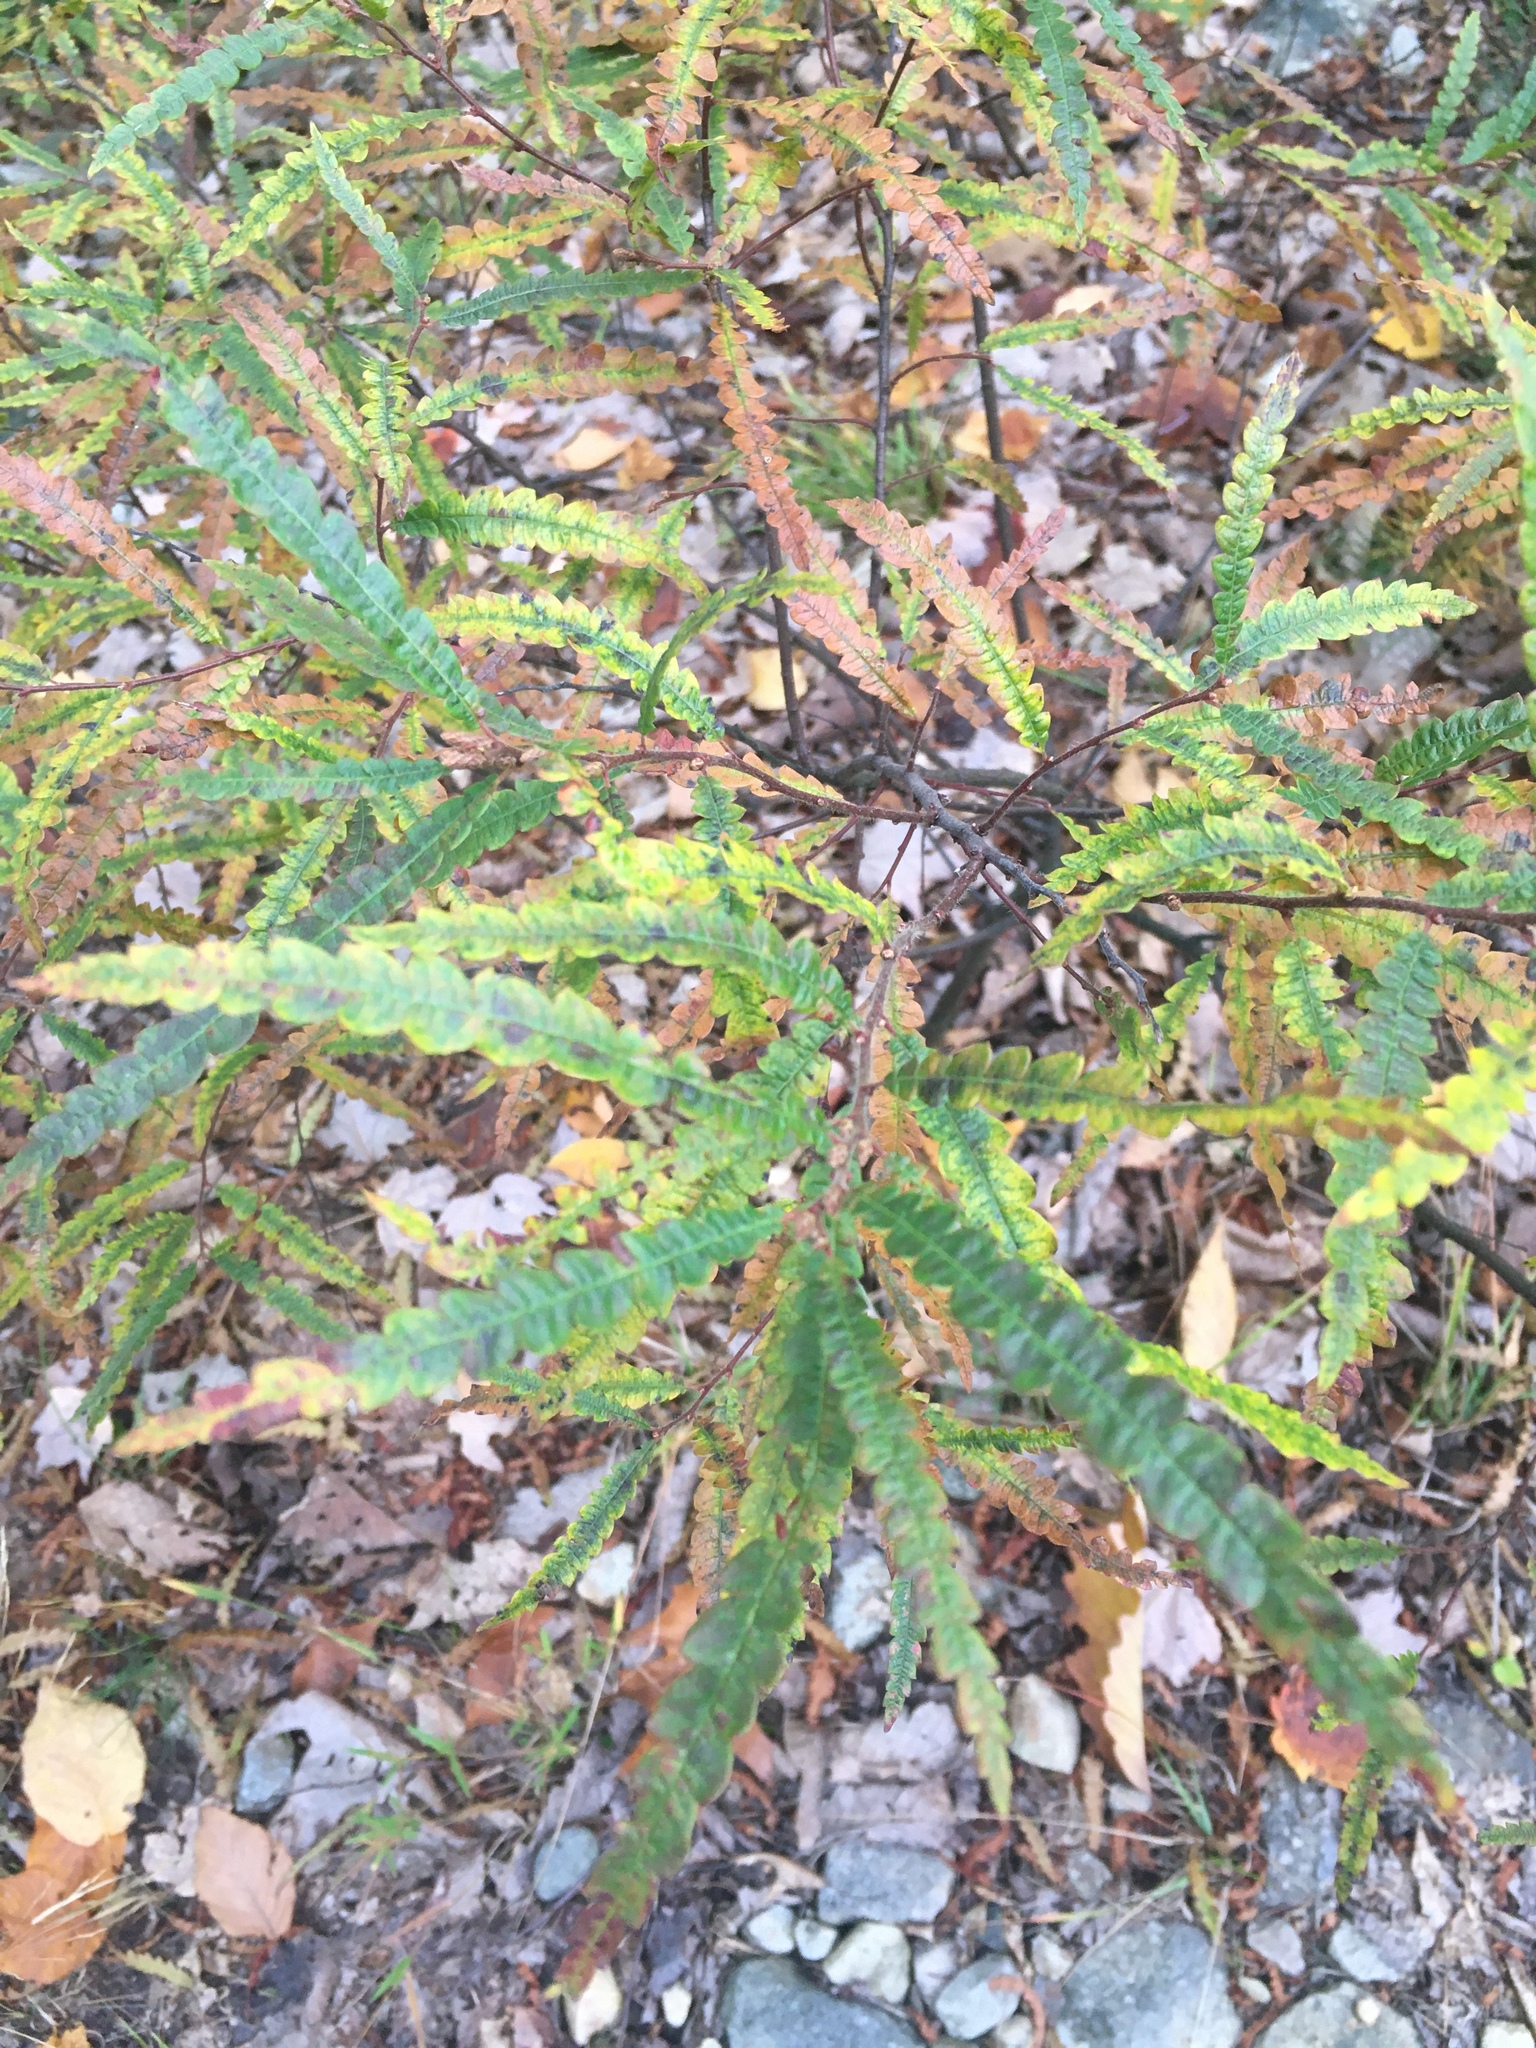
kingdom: Plantae
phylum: Tracheophyta
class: Magnoliopsida
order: Fagales
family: Myricaceae
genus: Comptonia
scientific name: Comptonia peregrina
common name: Sweet-fern
